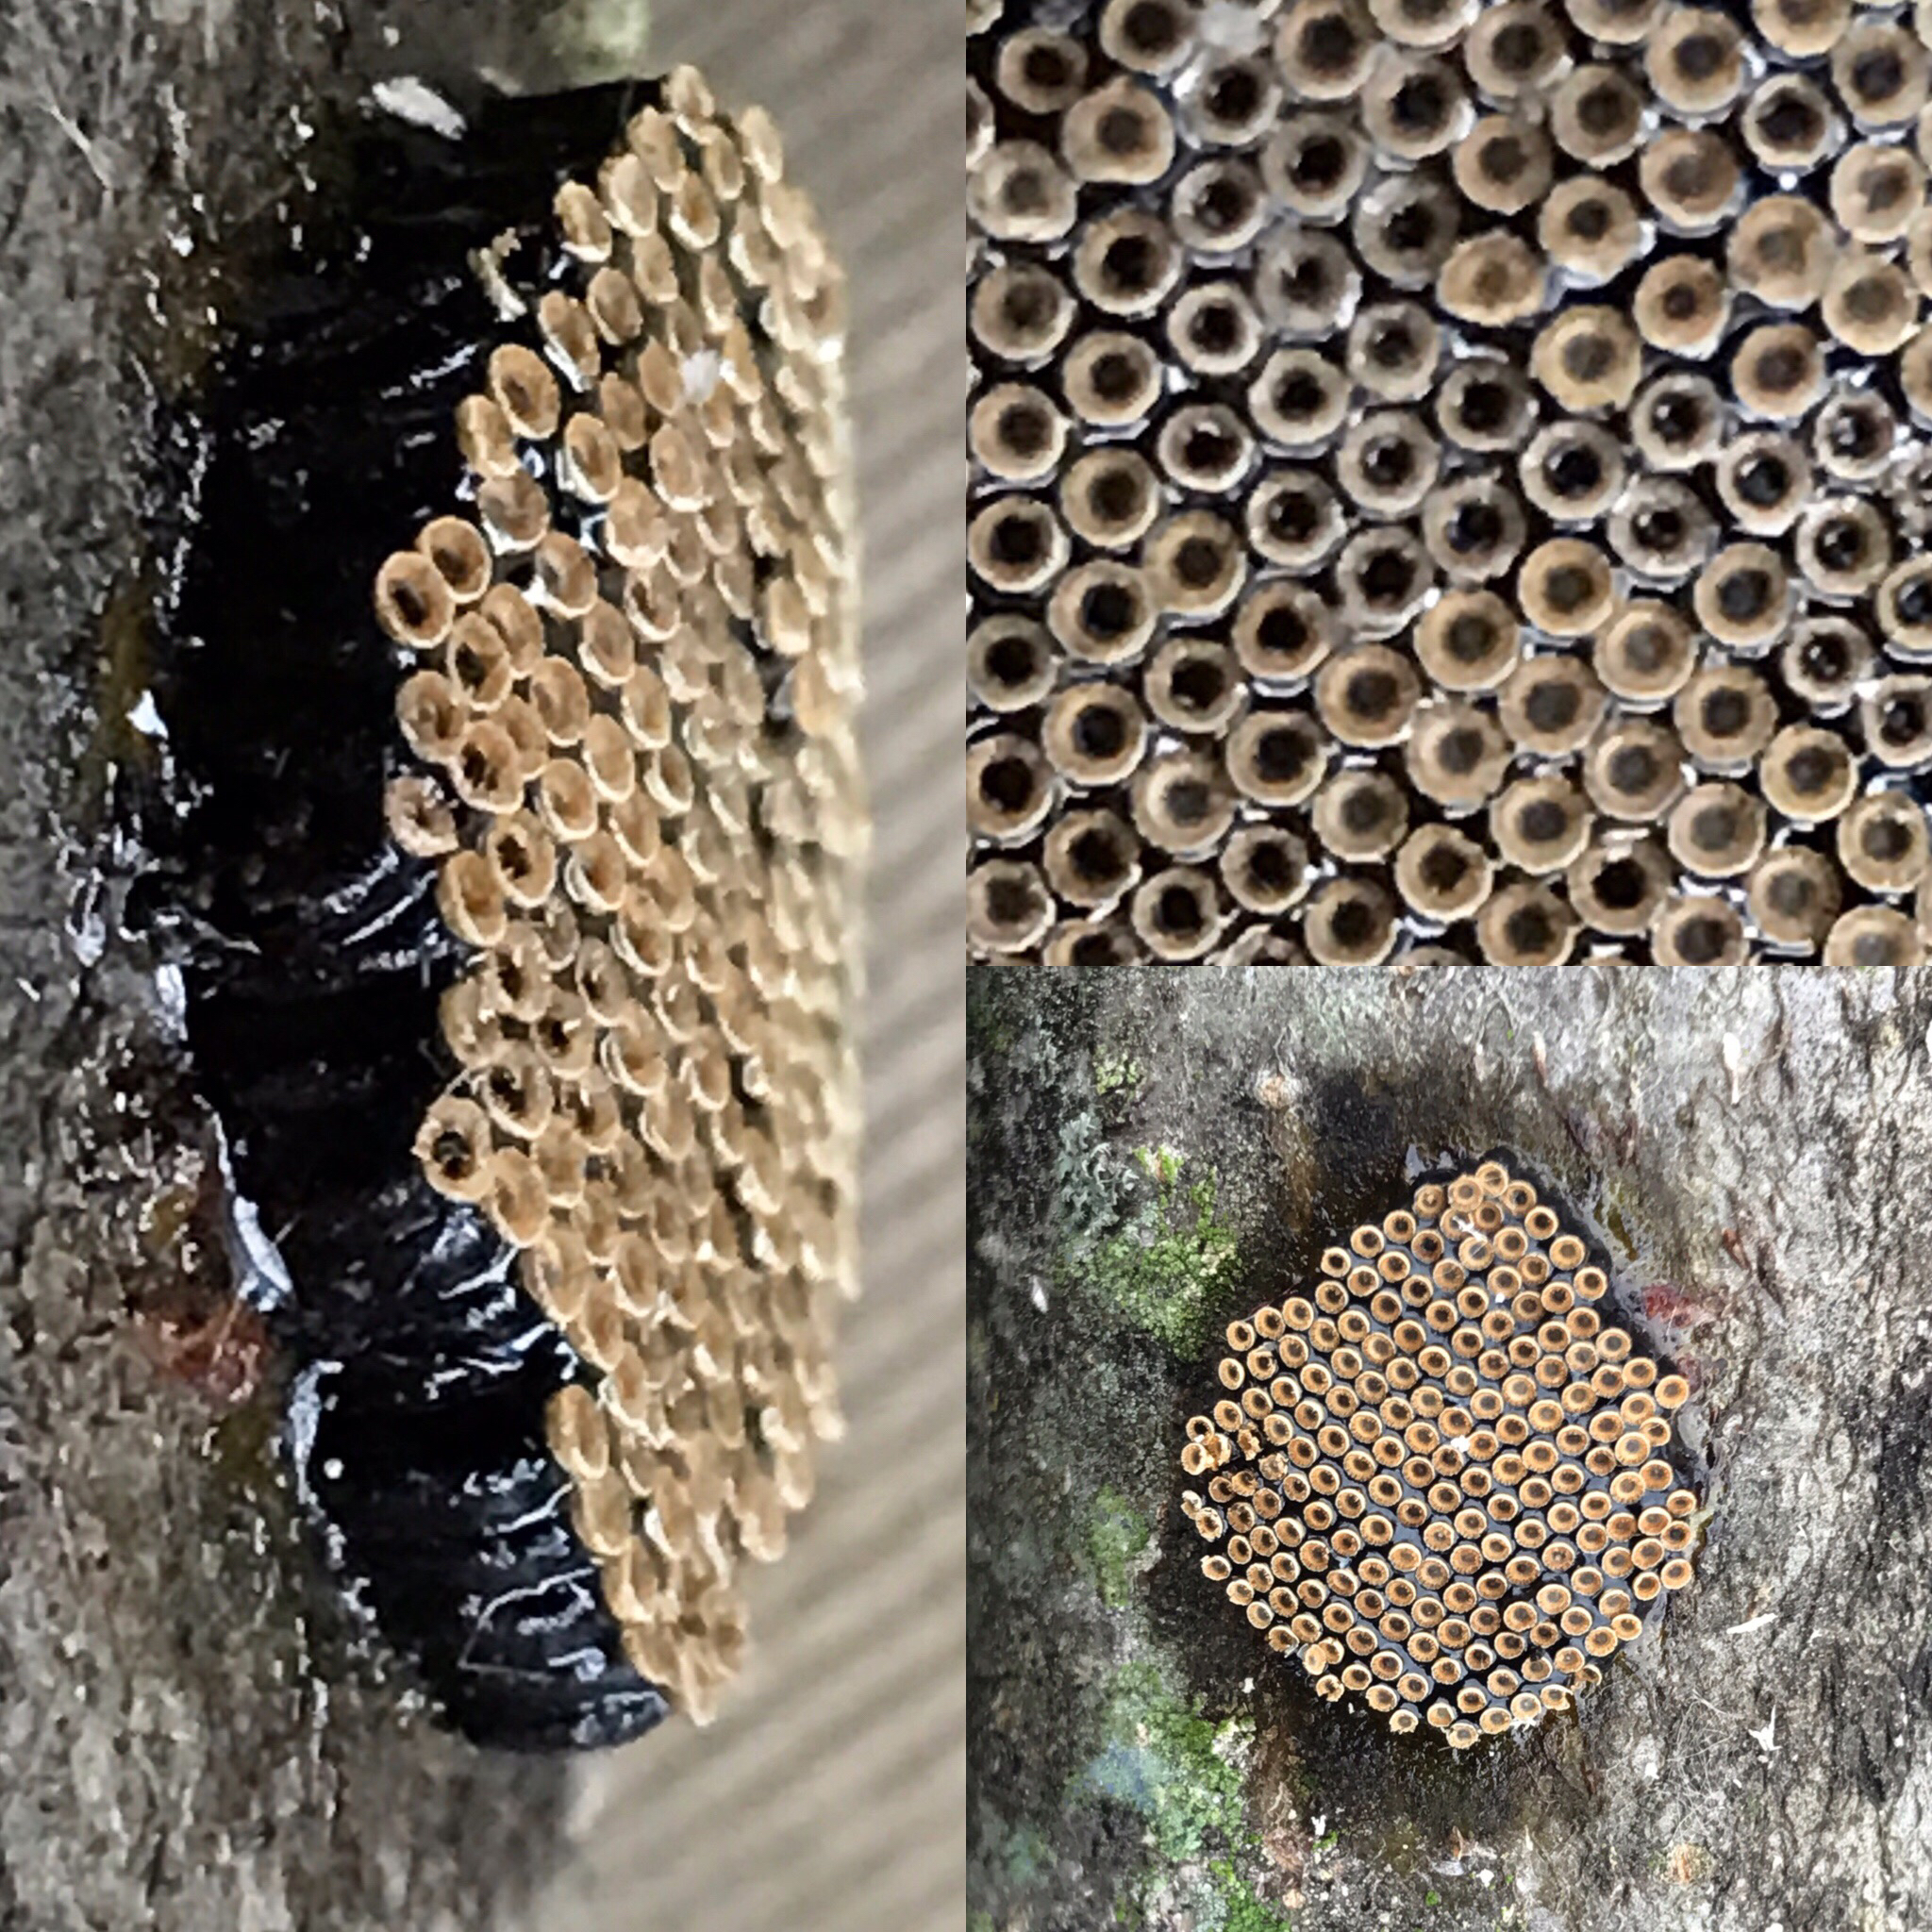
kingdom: Animalia
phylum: Arthropoda
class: Insecta
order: Hemiptera
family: Reduviidae
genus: Arilus
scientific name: Arilus cristatus
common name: North american wheel bug
